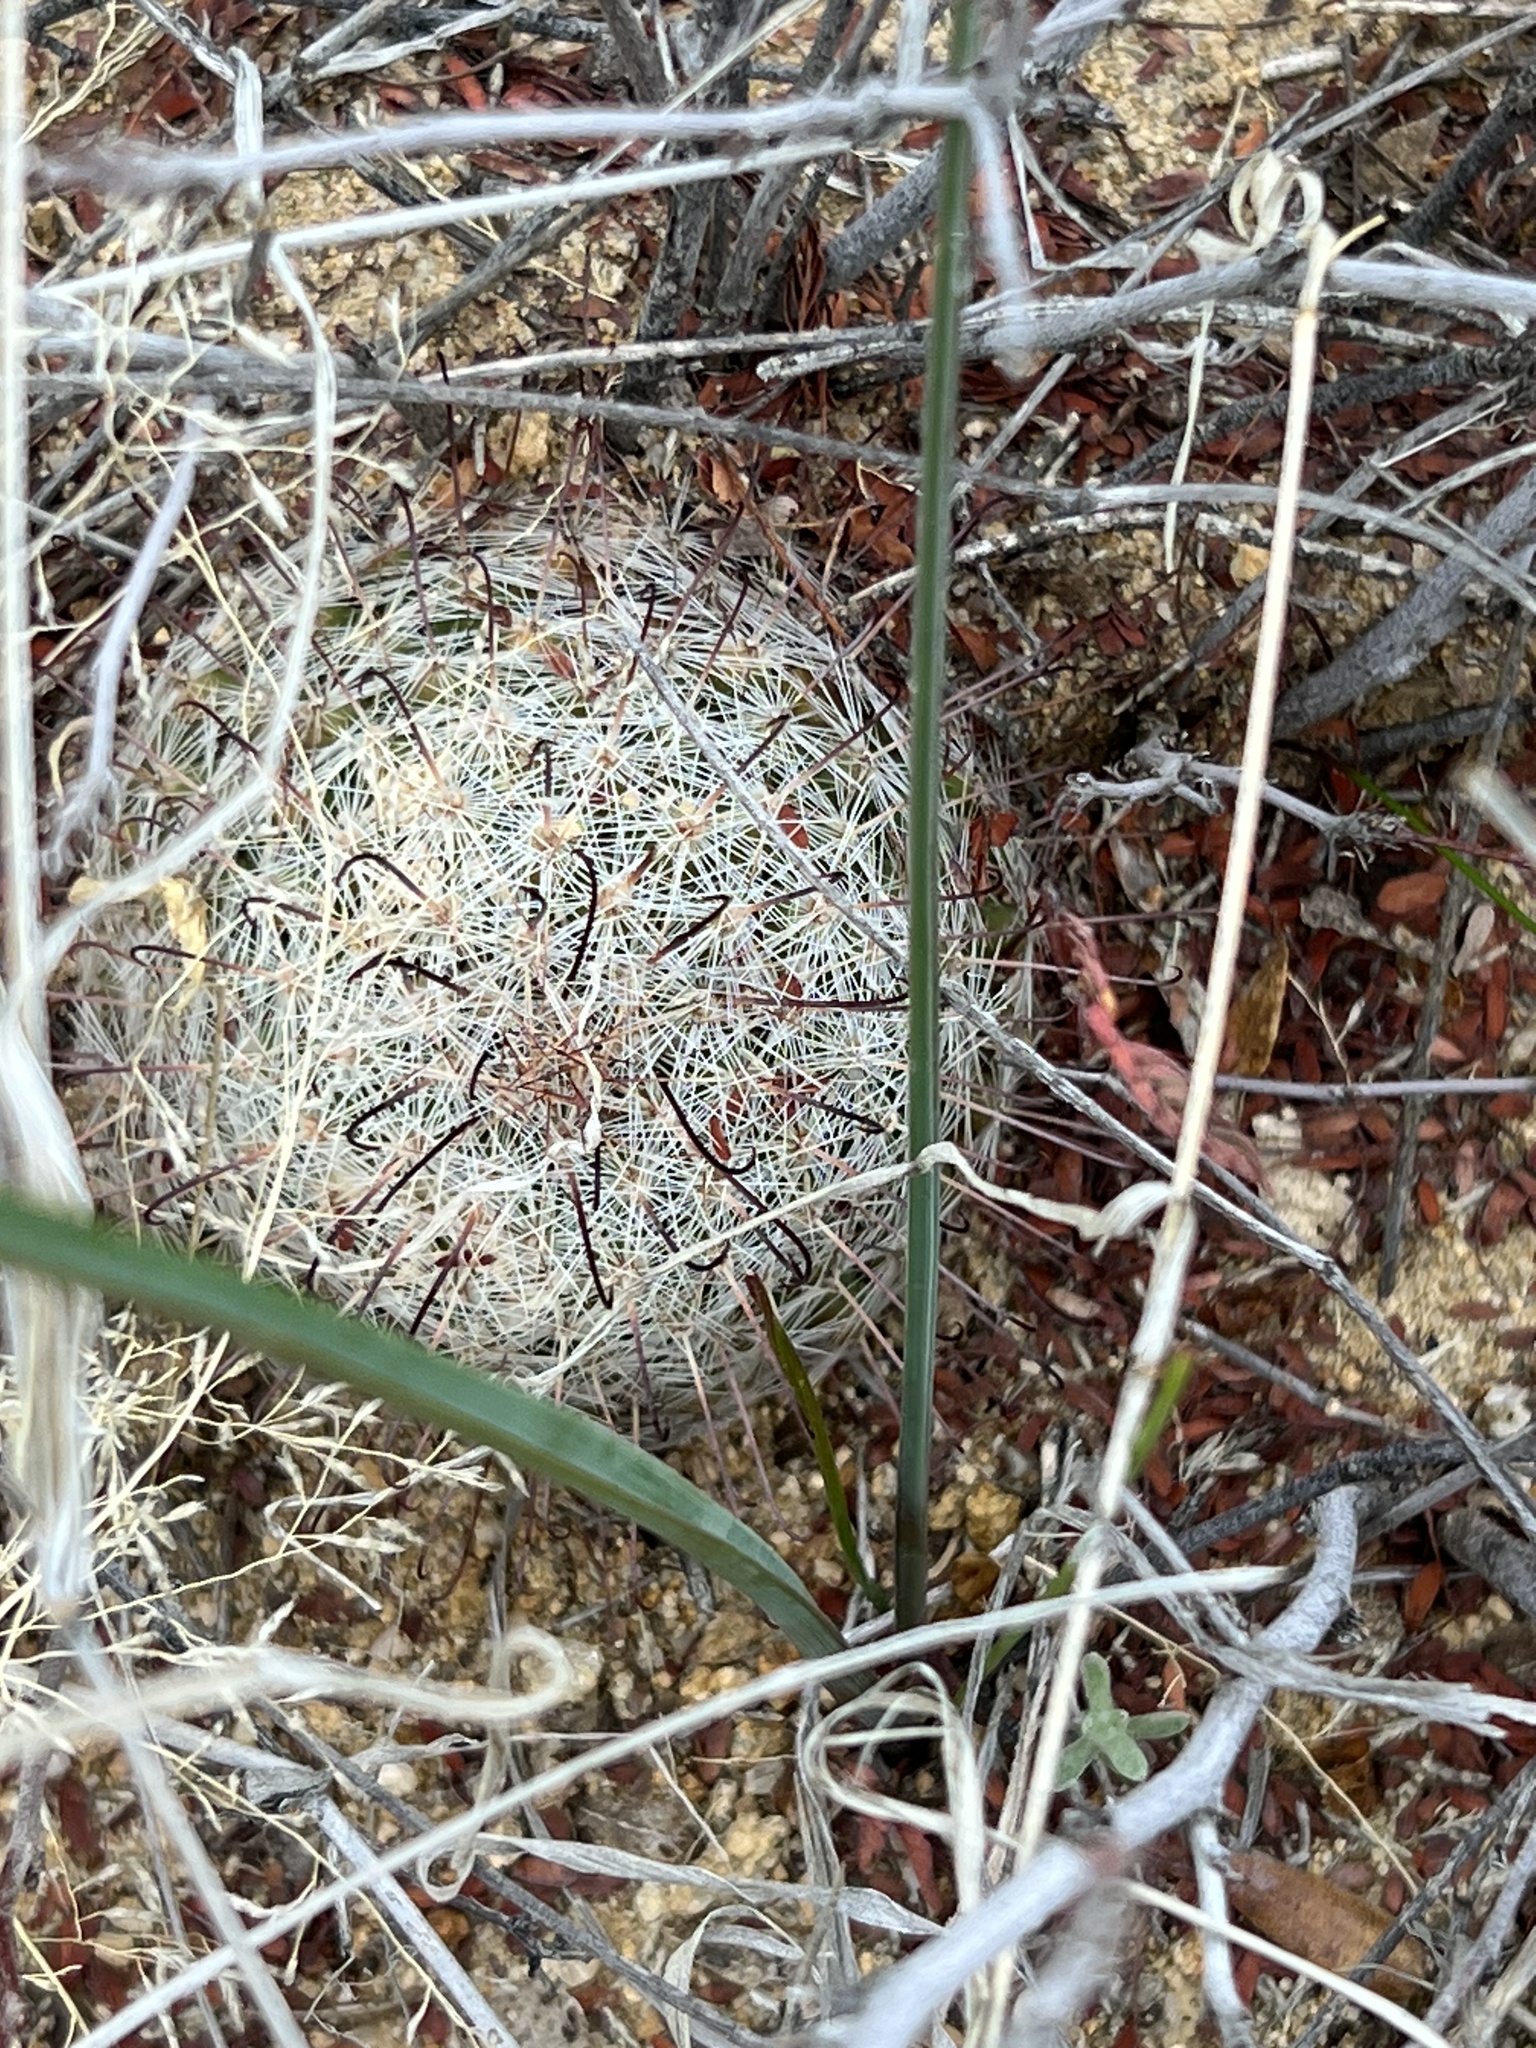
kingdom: Plantae
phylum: Tracheophyta
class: Magnoliopsida
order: Caryophyllales
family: Cactaceae
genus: Cochemiea
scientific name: Cochemiea grahamii
